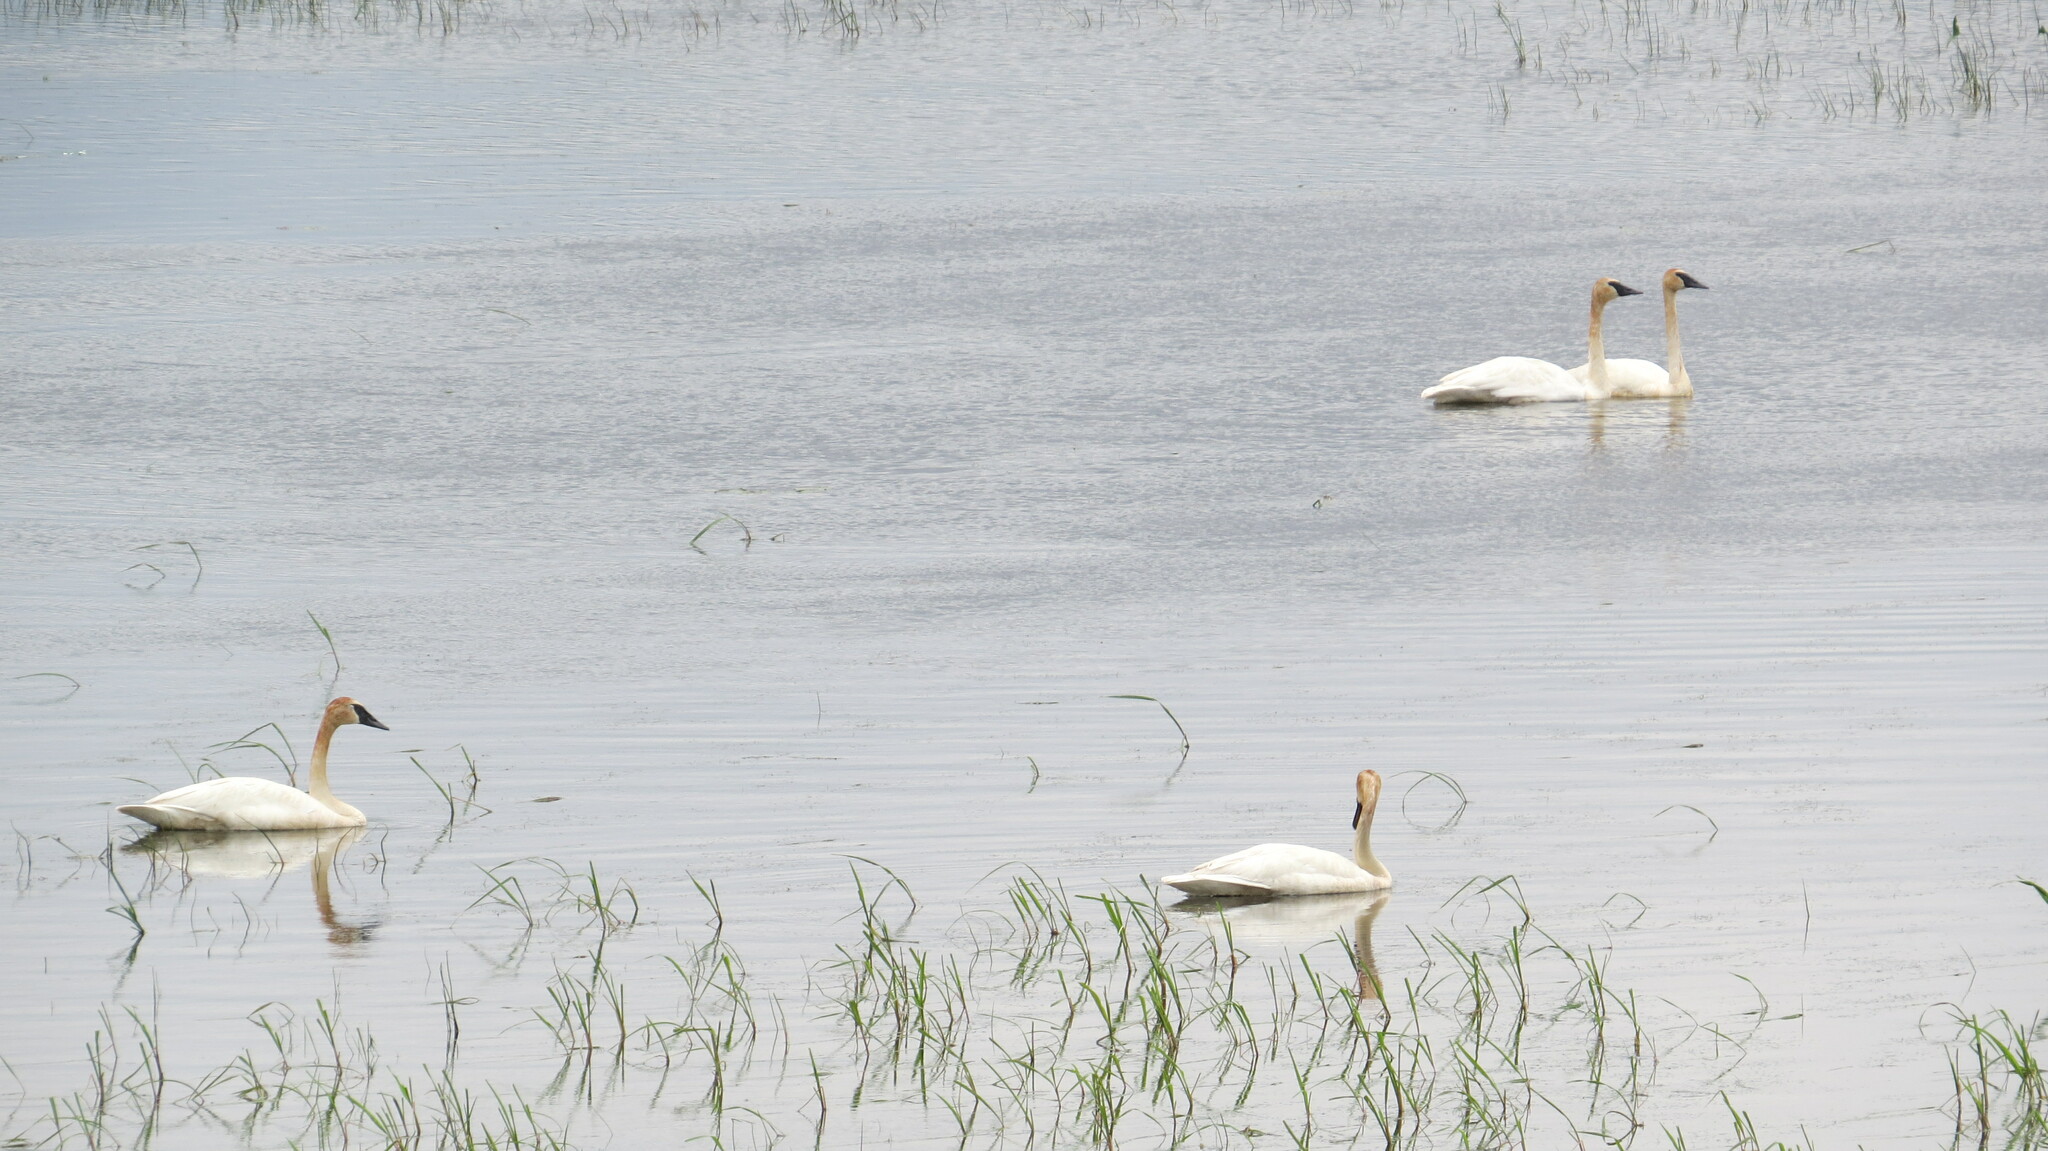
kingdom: Animalia
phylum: Chordata
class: Aves
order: Anseriformes
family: Anatidae
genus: Cygnus
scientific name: Cygnus buccinator
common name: Trumpeter swan
